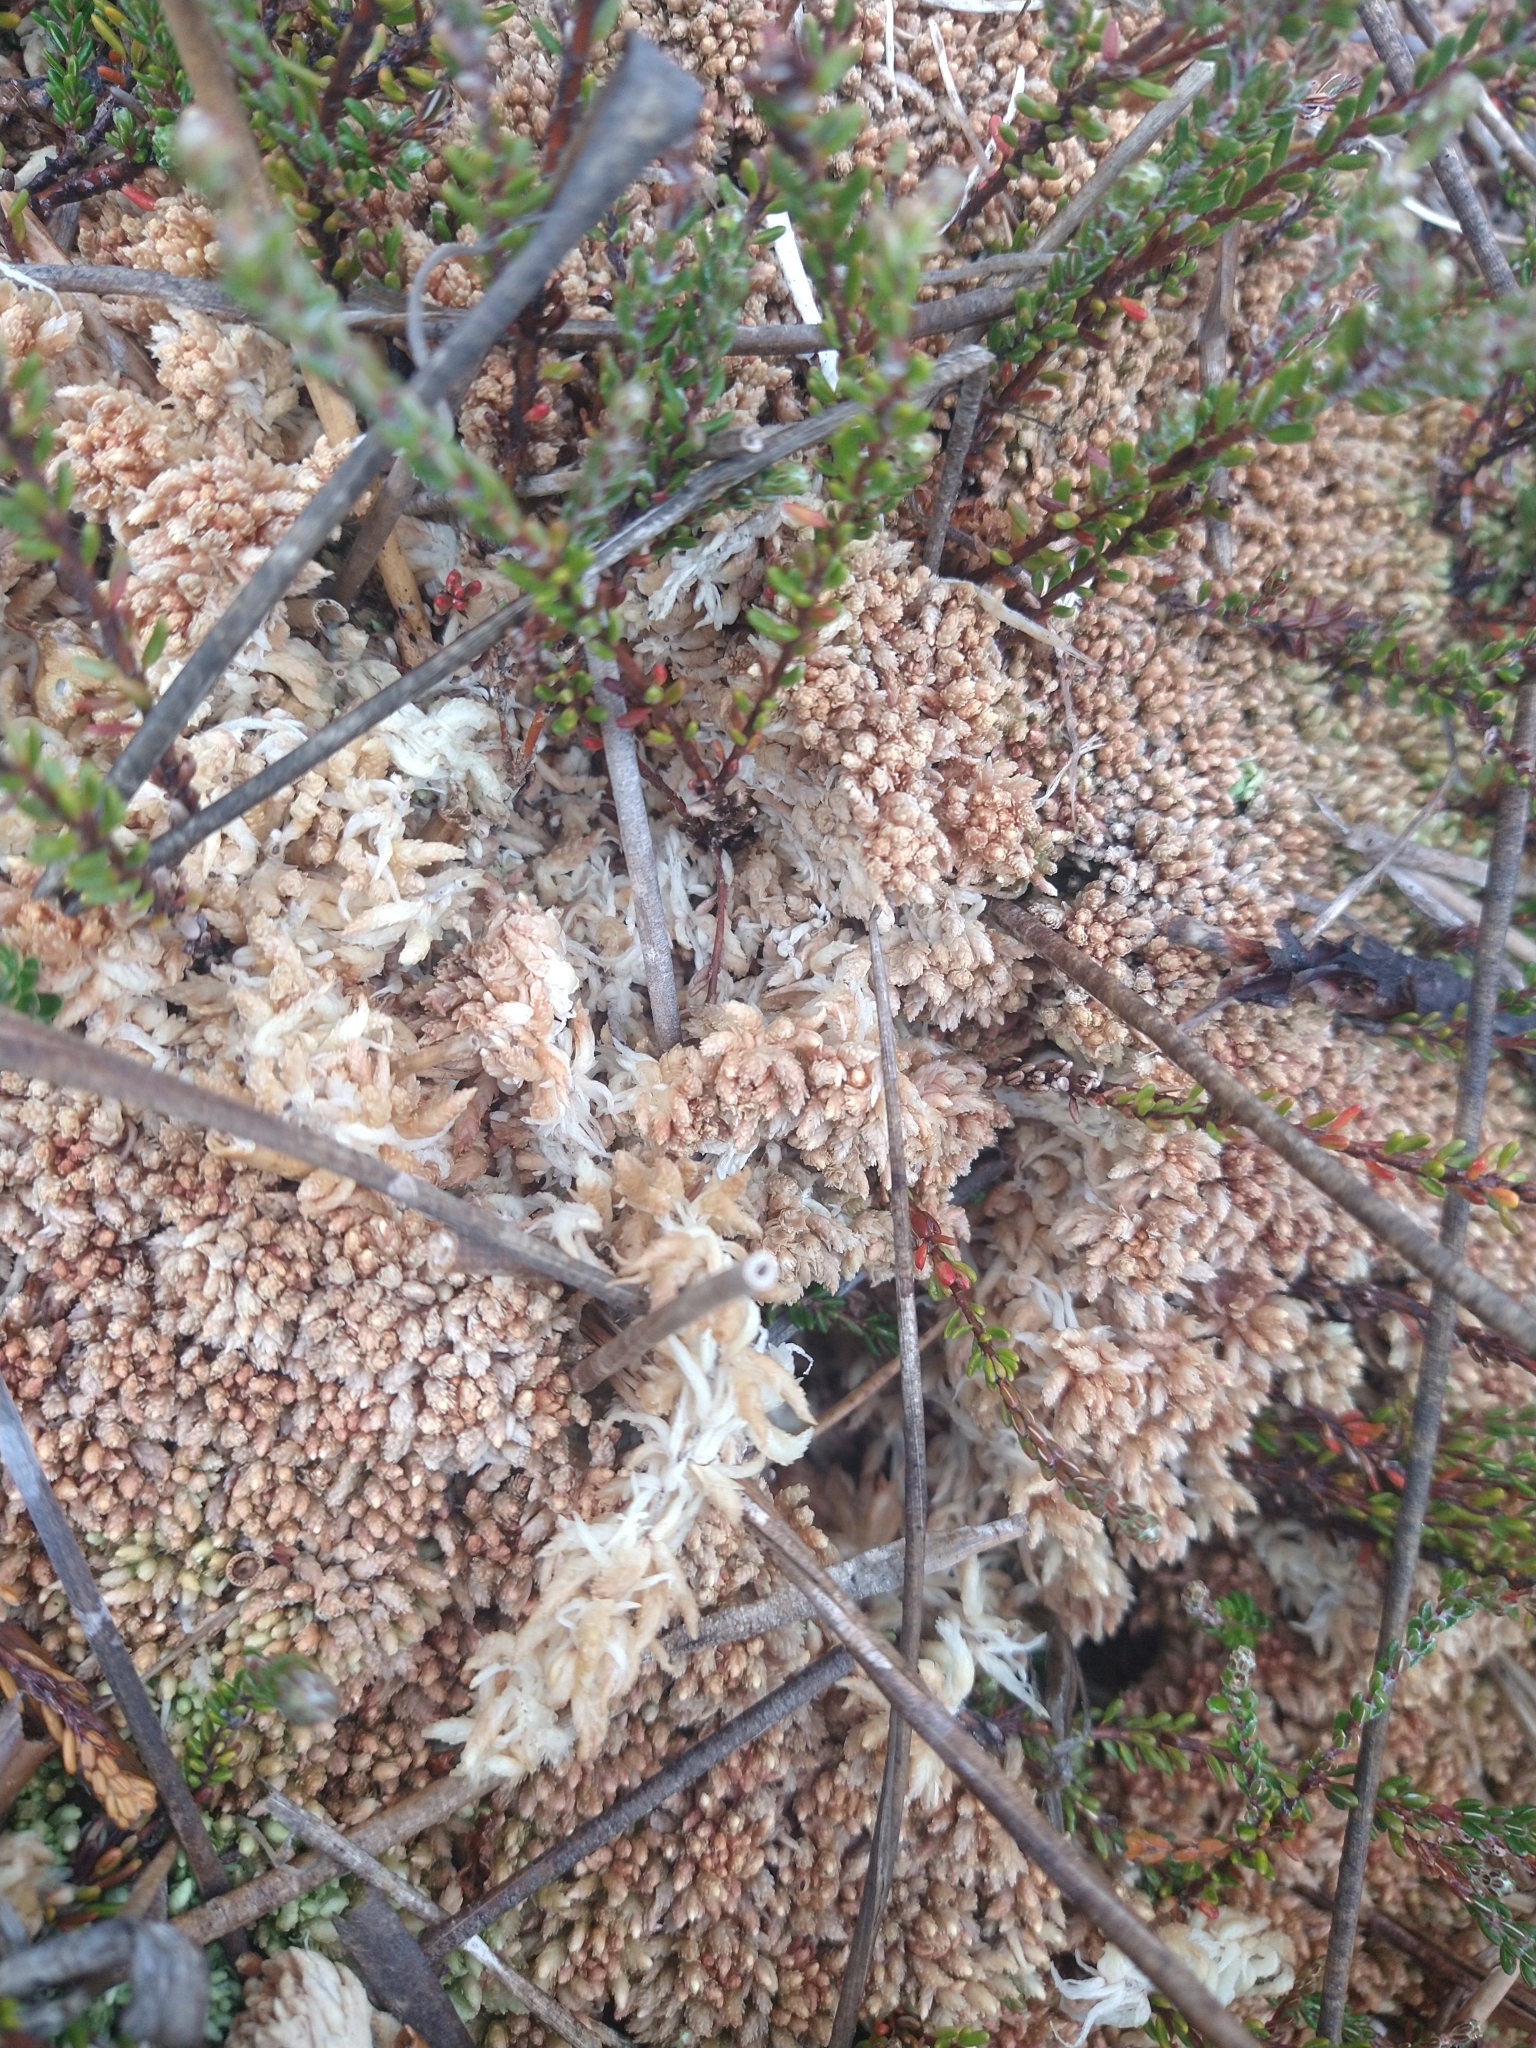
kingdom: Plantae
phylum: Bryophyta
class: Sphagnopsida
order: Sphagnales
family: Sphagnaceae
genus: Sphagnum
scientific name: Sphagnum magellanicum
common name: Magellan's peat moss
